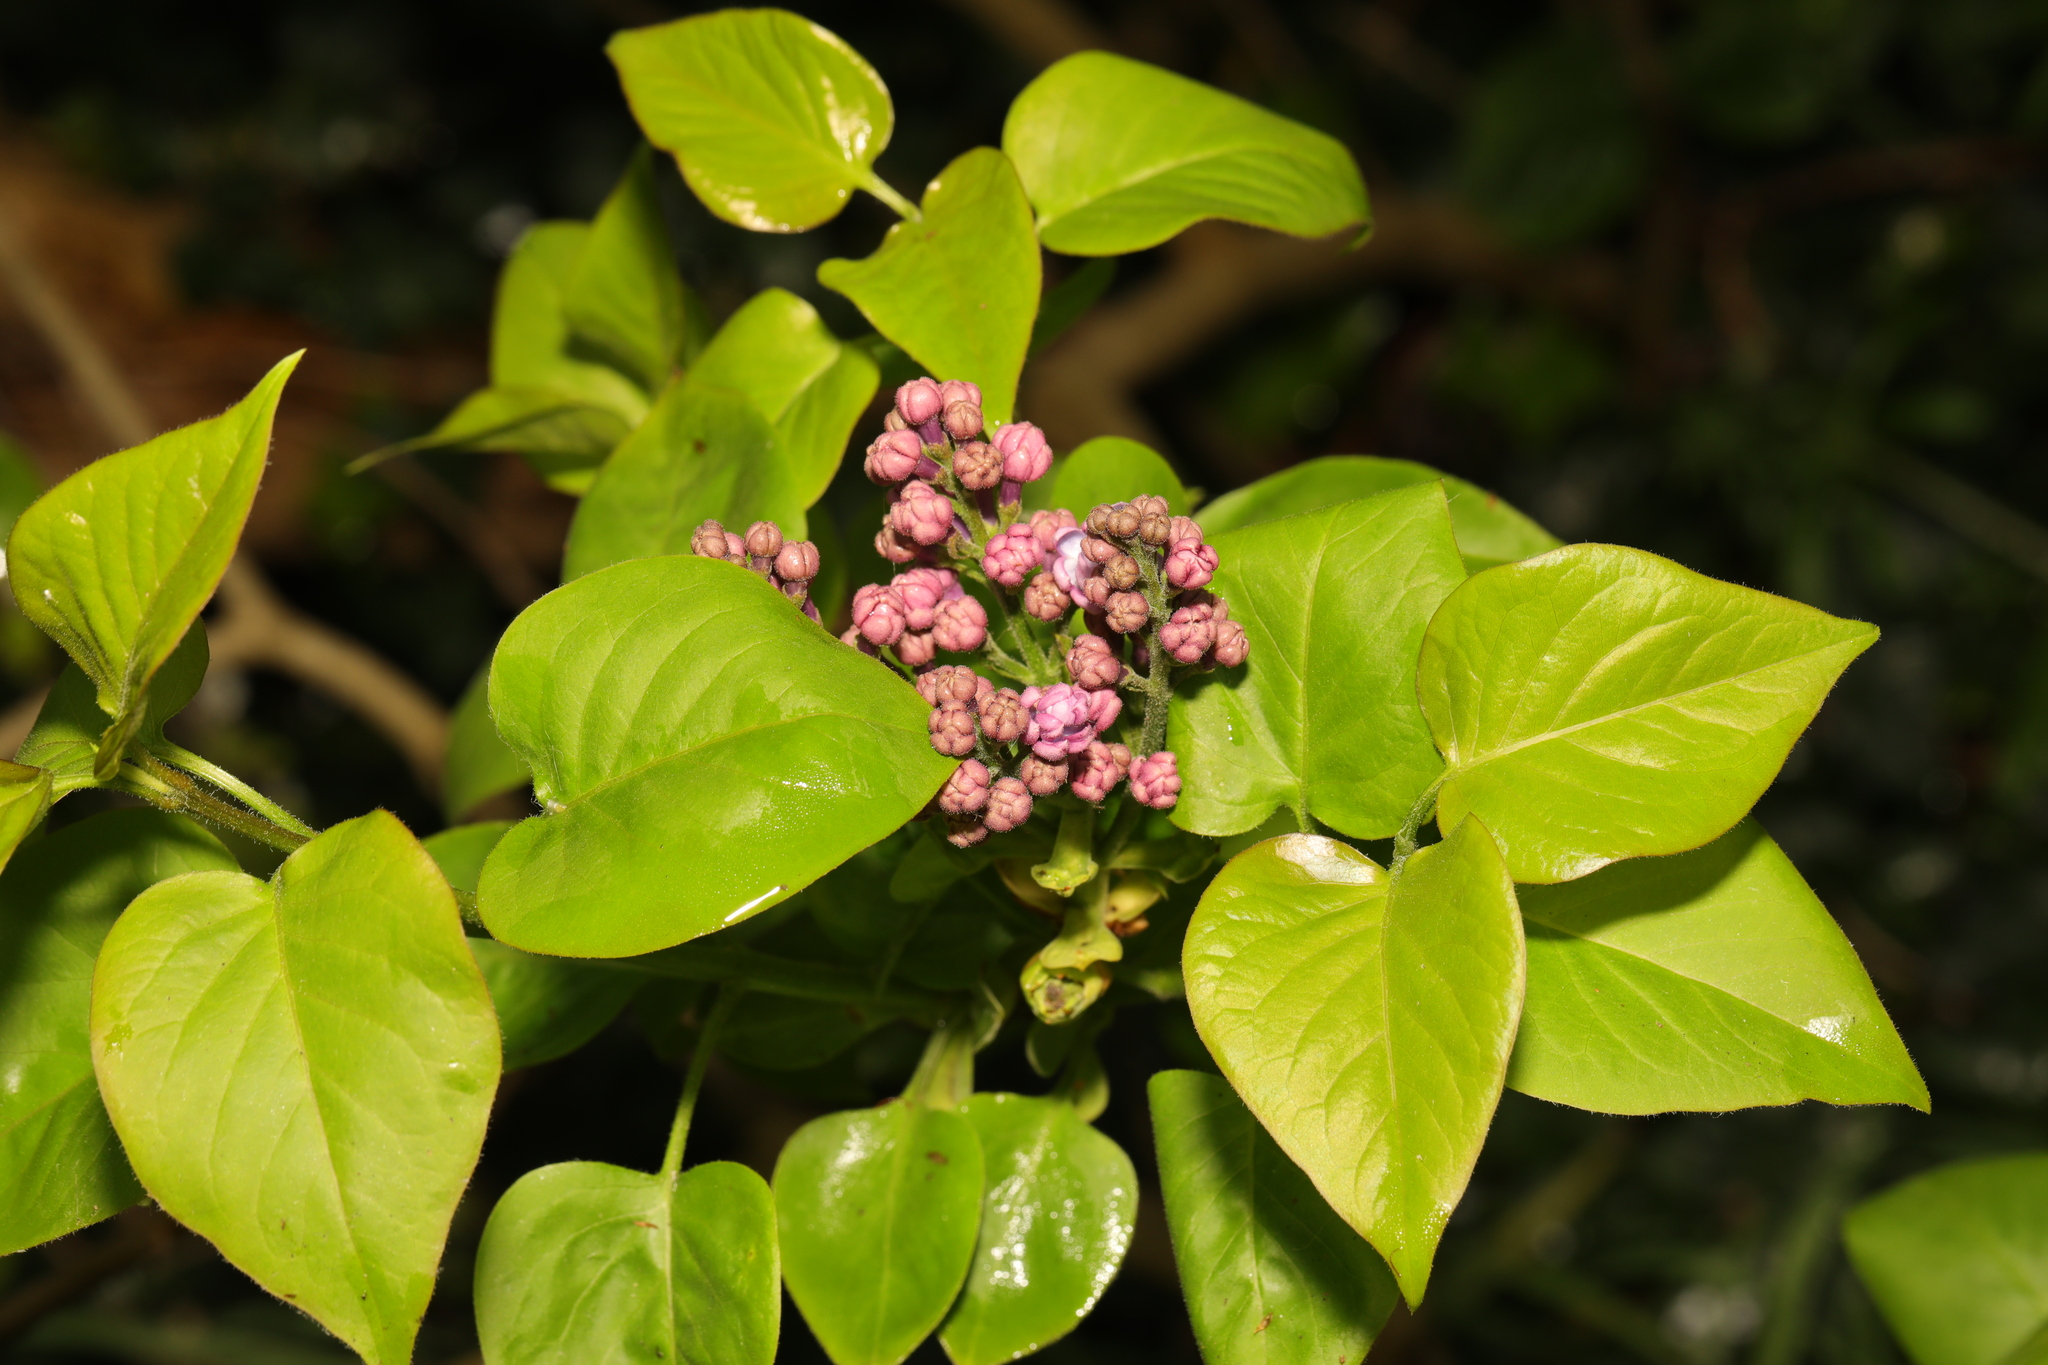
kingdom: Plantae
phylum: Tracheophyta
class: Magnoliopsida
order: Lamiales
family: Oleaceae
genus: Syringa
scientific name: Syringa vulgaris
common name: Common lilac
